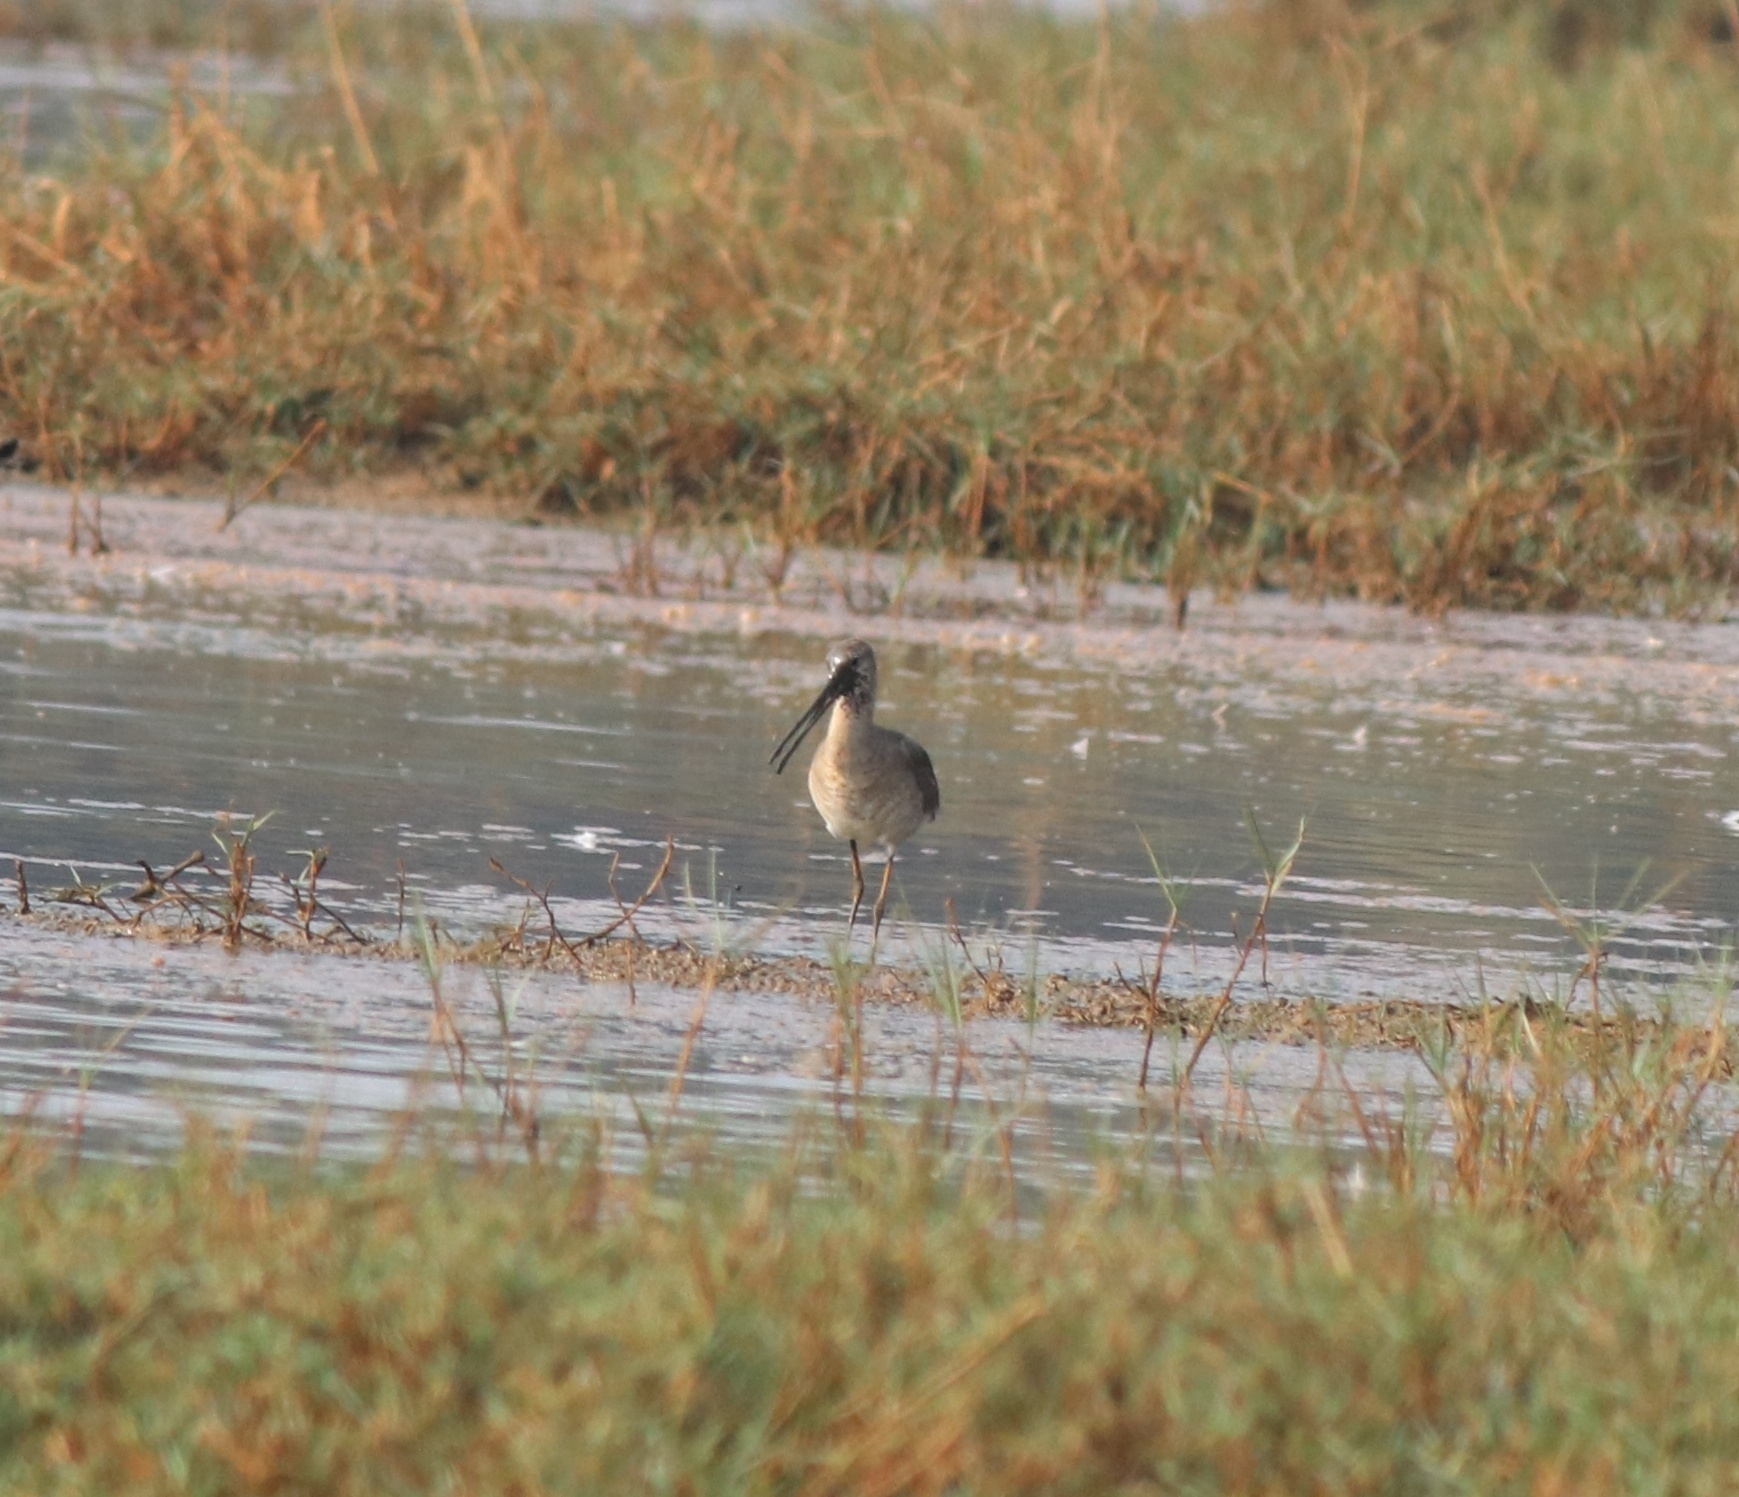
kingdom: Animalia
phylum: Chordata
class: Aves
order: Charadriiformes
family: Scolopacidae
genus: Limosa
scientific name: Limosa limosa
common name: Black-tailed godwit
